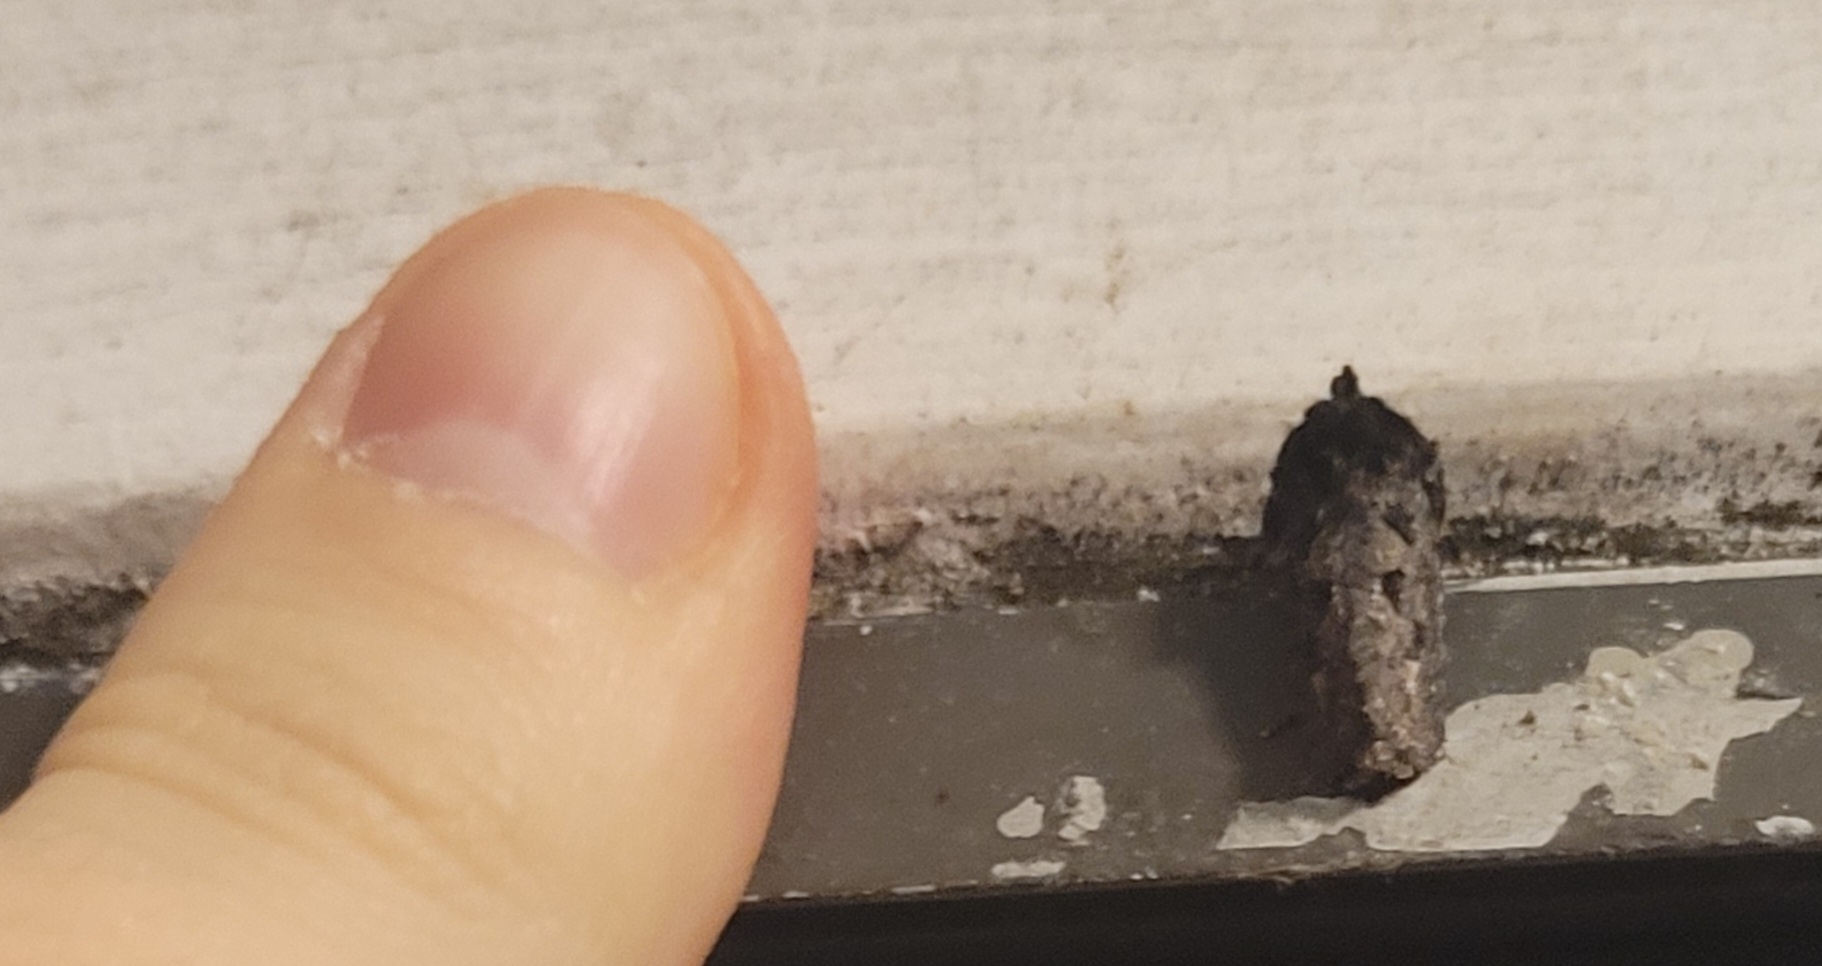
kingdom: Animalia
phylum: Arthropoda
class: Insecta
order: Lepidoptera
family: Tineidae
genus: Acrolophus
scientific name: Acrolophus arcanella
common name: Arcane grass tubeworm moth
